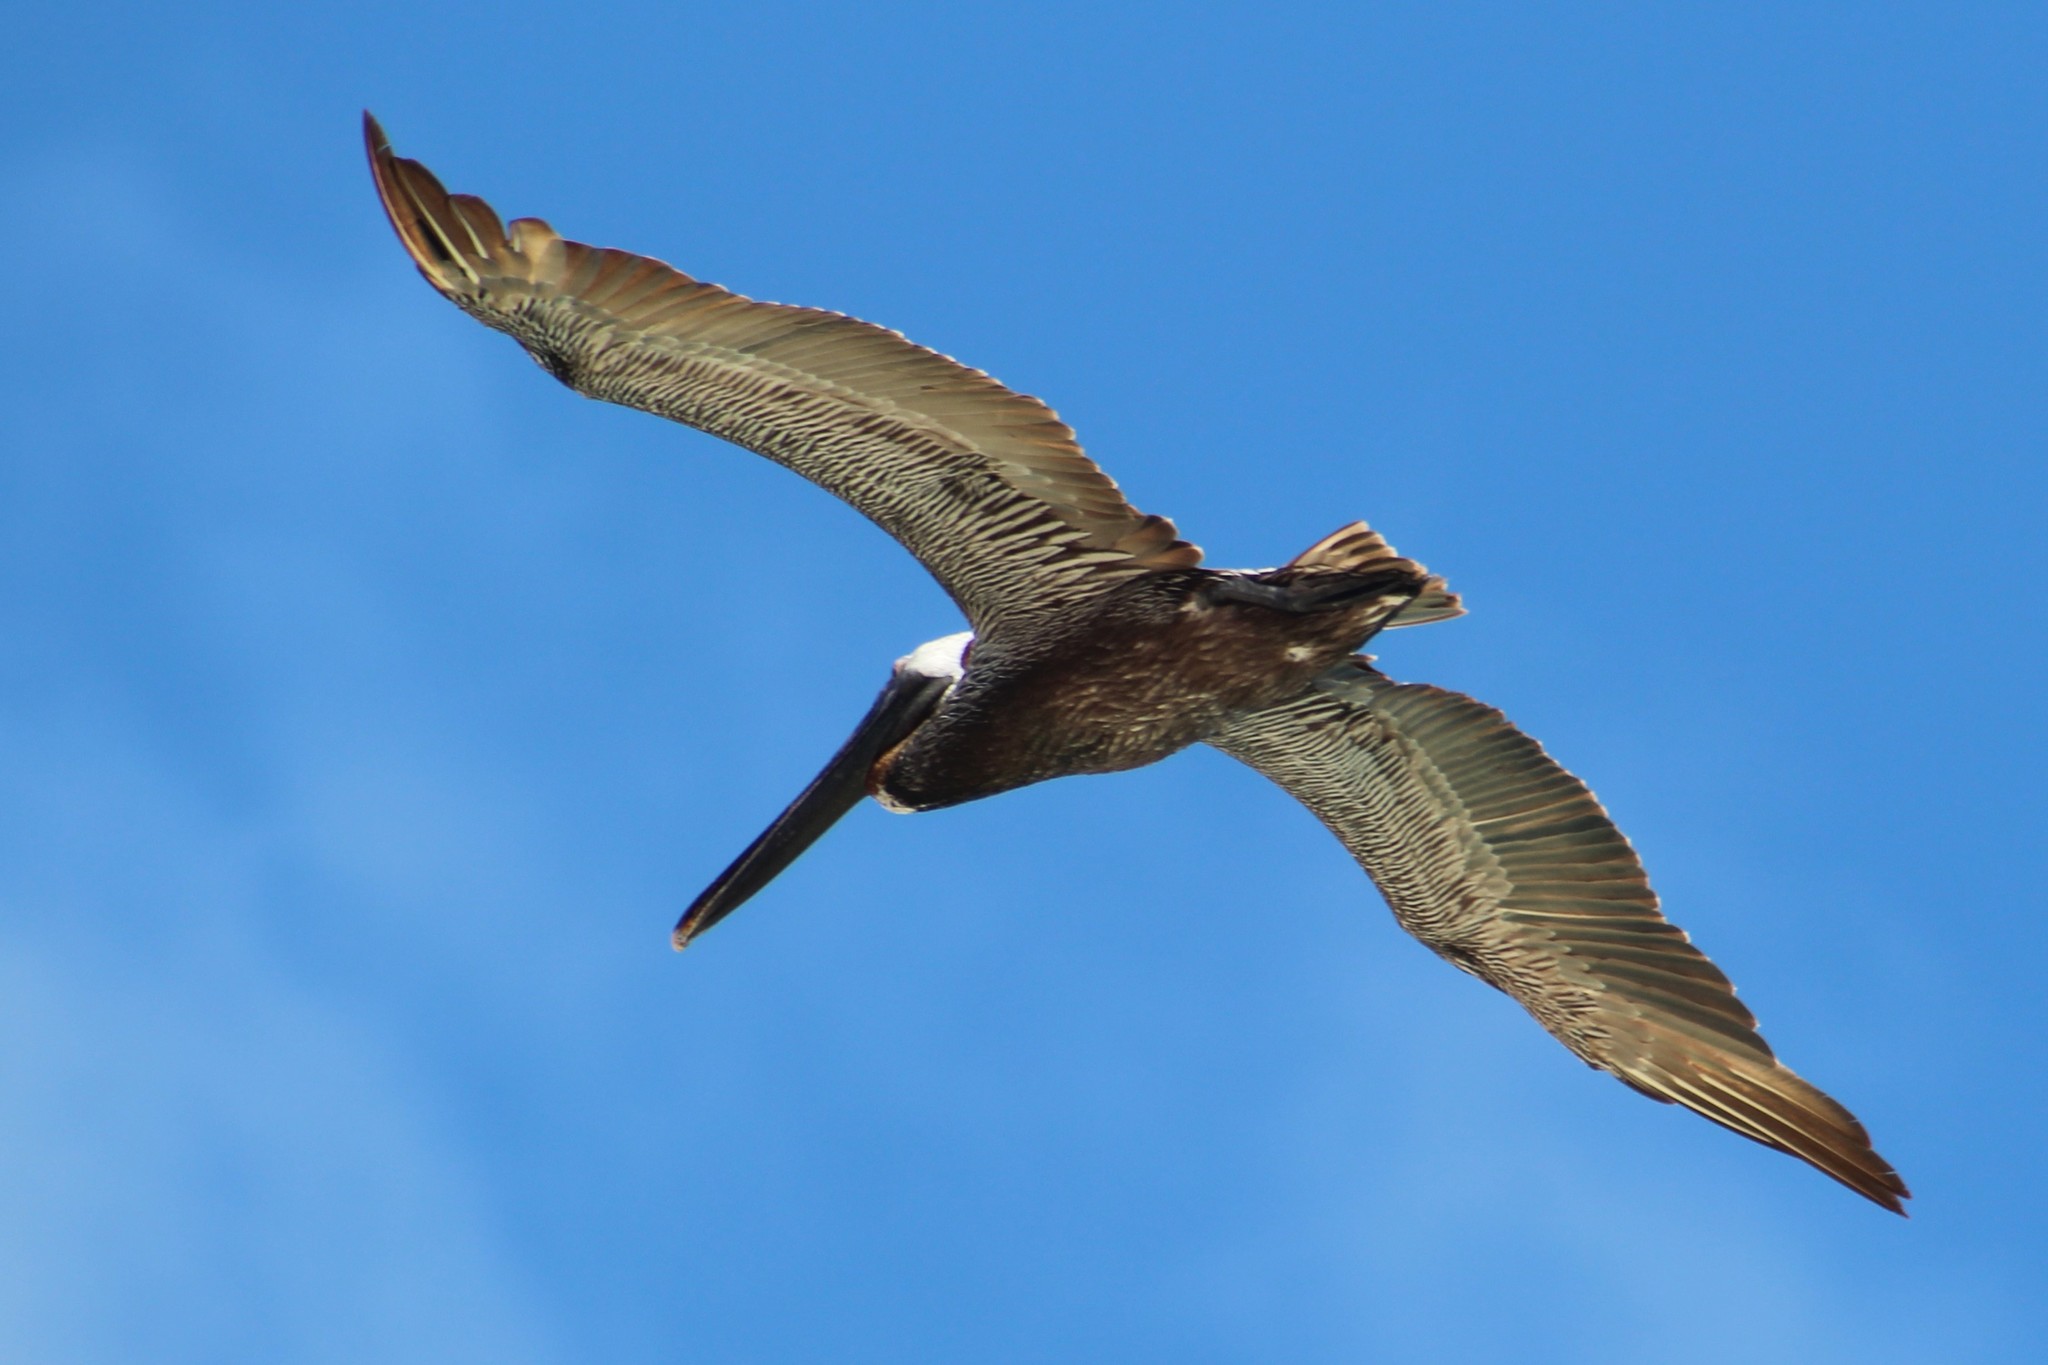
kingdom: Animalia
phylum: Chordata
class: Aves
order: Pelecaniformes
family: Pelecanidae
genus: Pelecanus
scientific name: Pelecanus occidentalis
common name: Brown pelican
